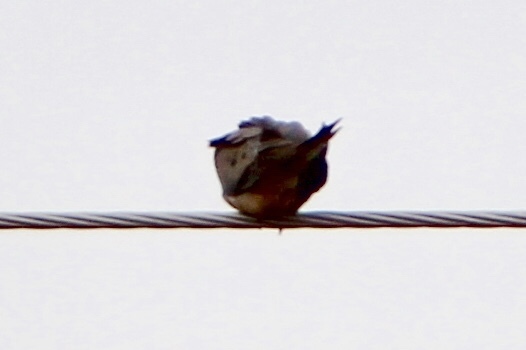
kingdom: Animalia
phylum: Chordata
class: Aves
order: Columbiformes
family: Columbidae
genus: Zenaida
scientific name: Zenaida macroura
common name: Mourning dove
